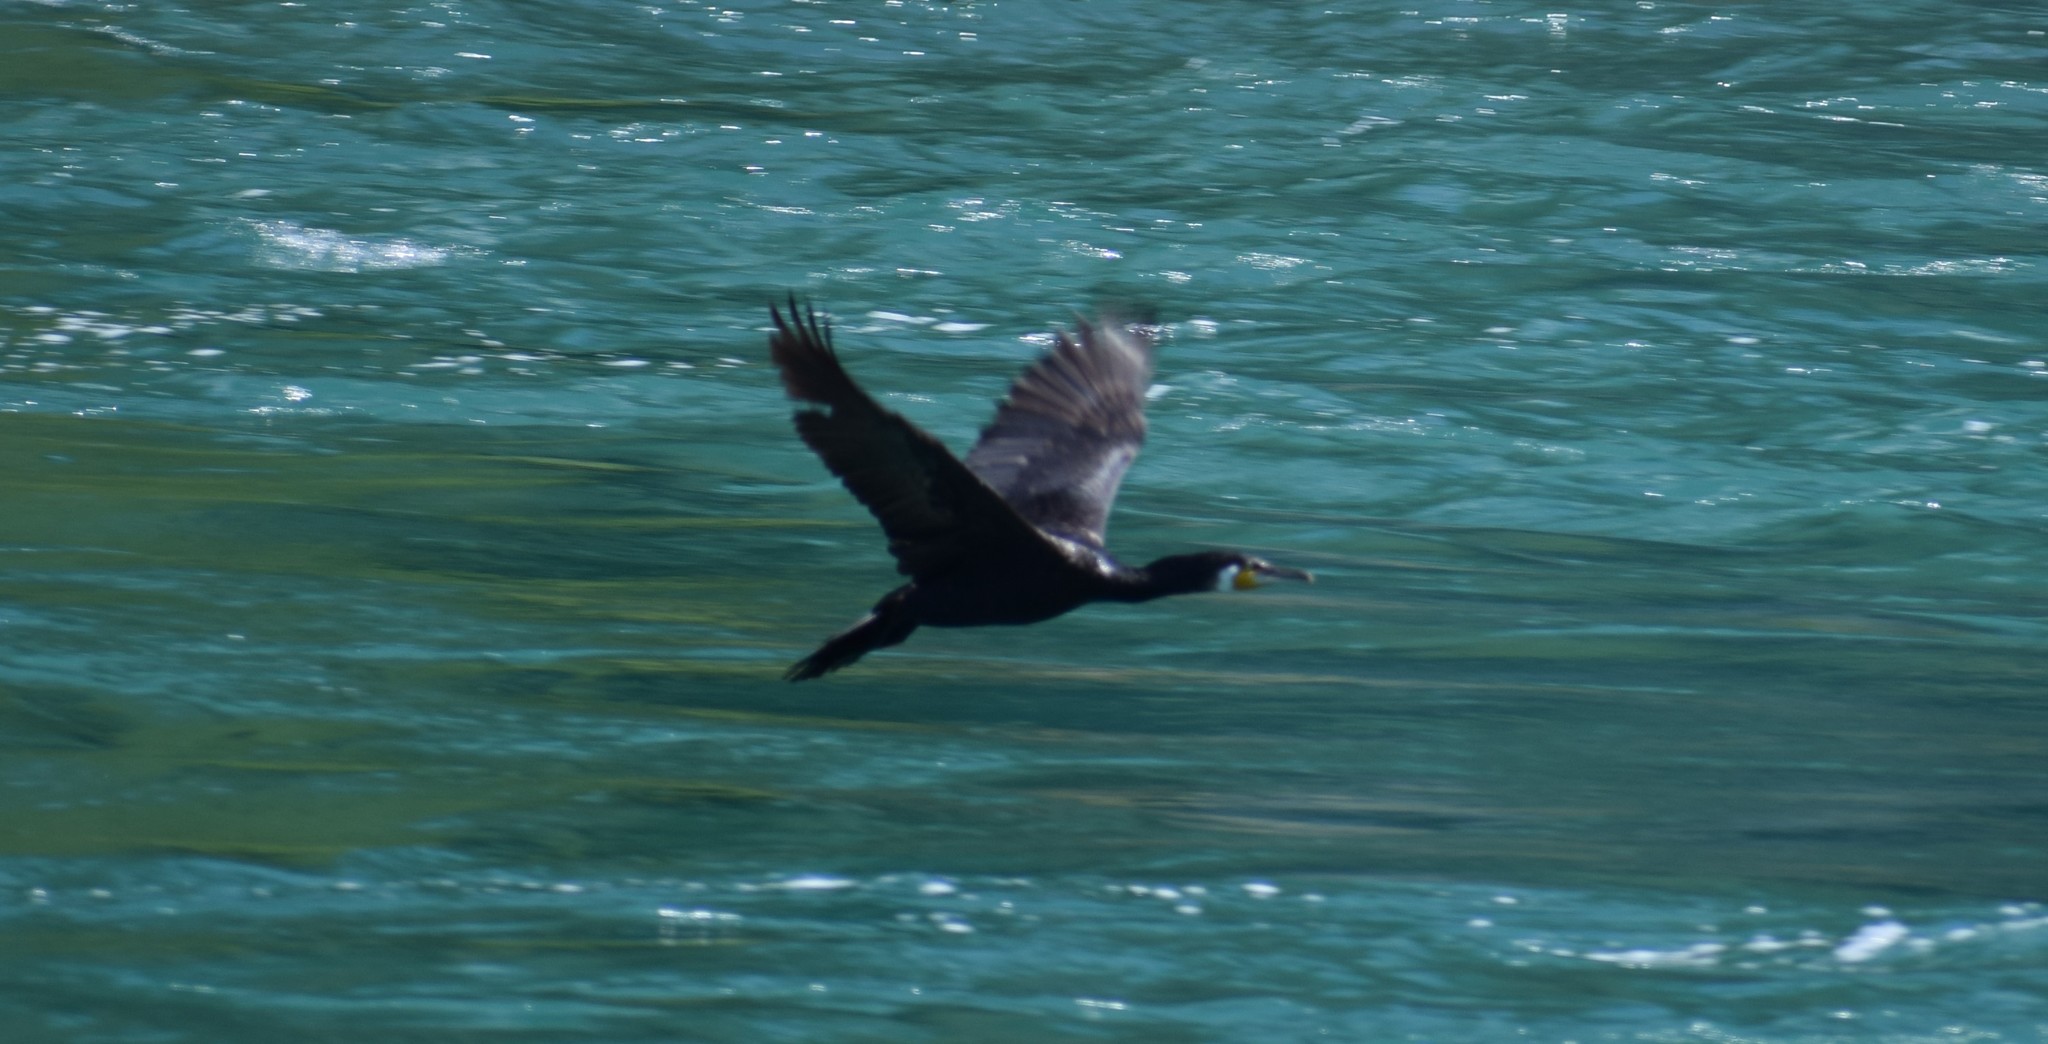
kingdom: Animalia
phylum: Chordata
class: Aves
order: Suliformes
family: Phalacrocoracidae
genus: Phalacrocorax
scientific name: Phalacrocorax carbo
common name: Great cormorant
